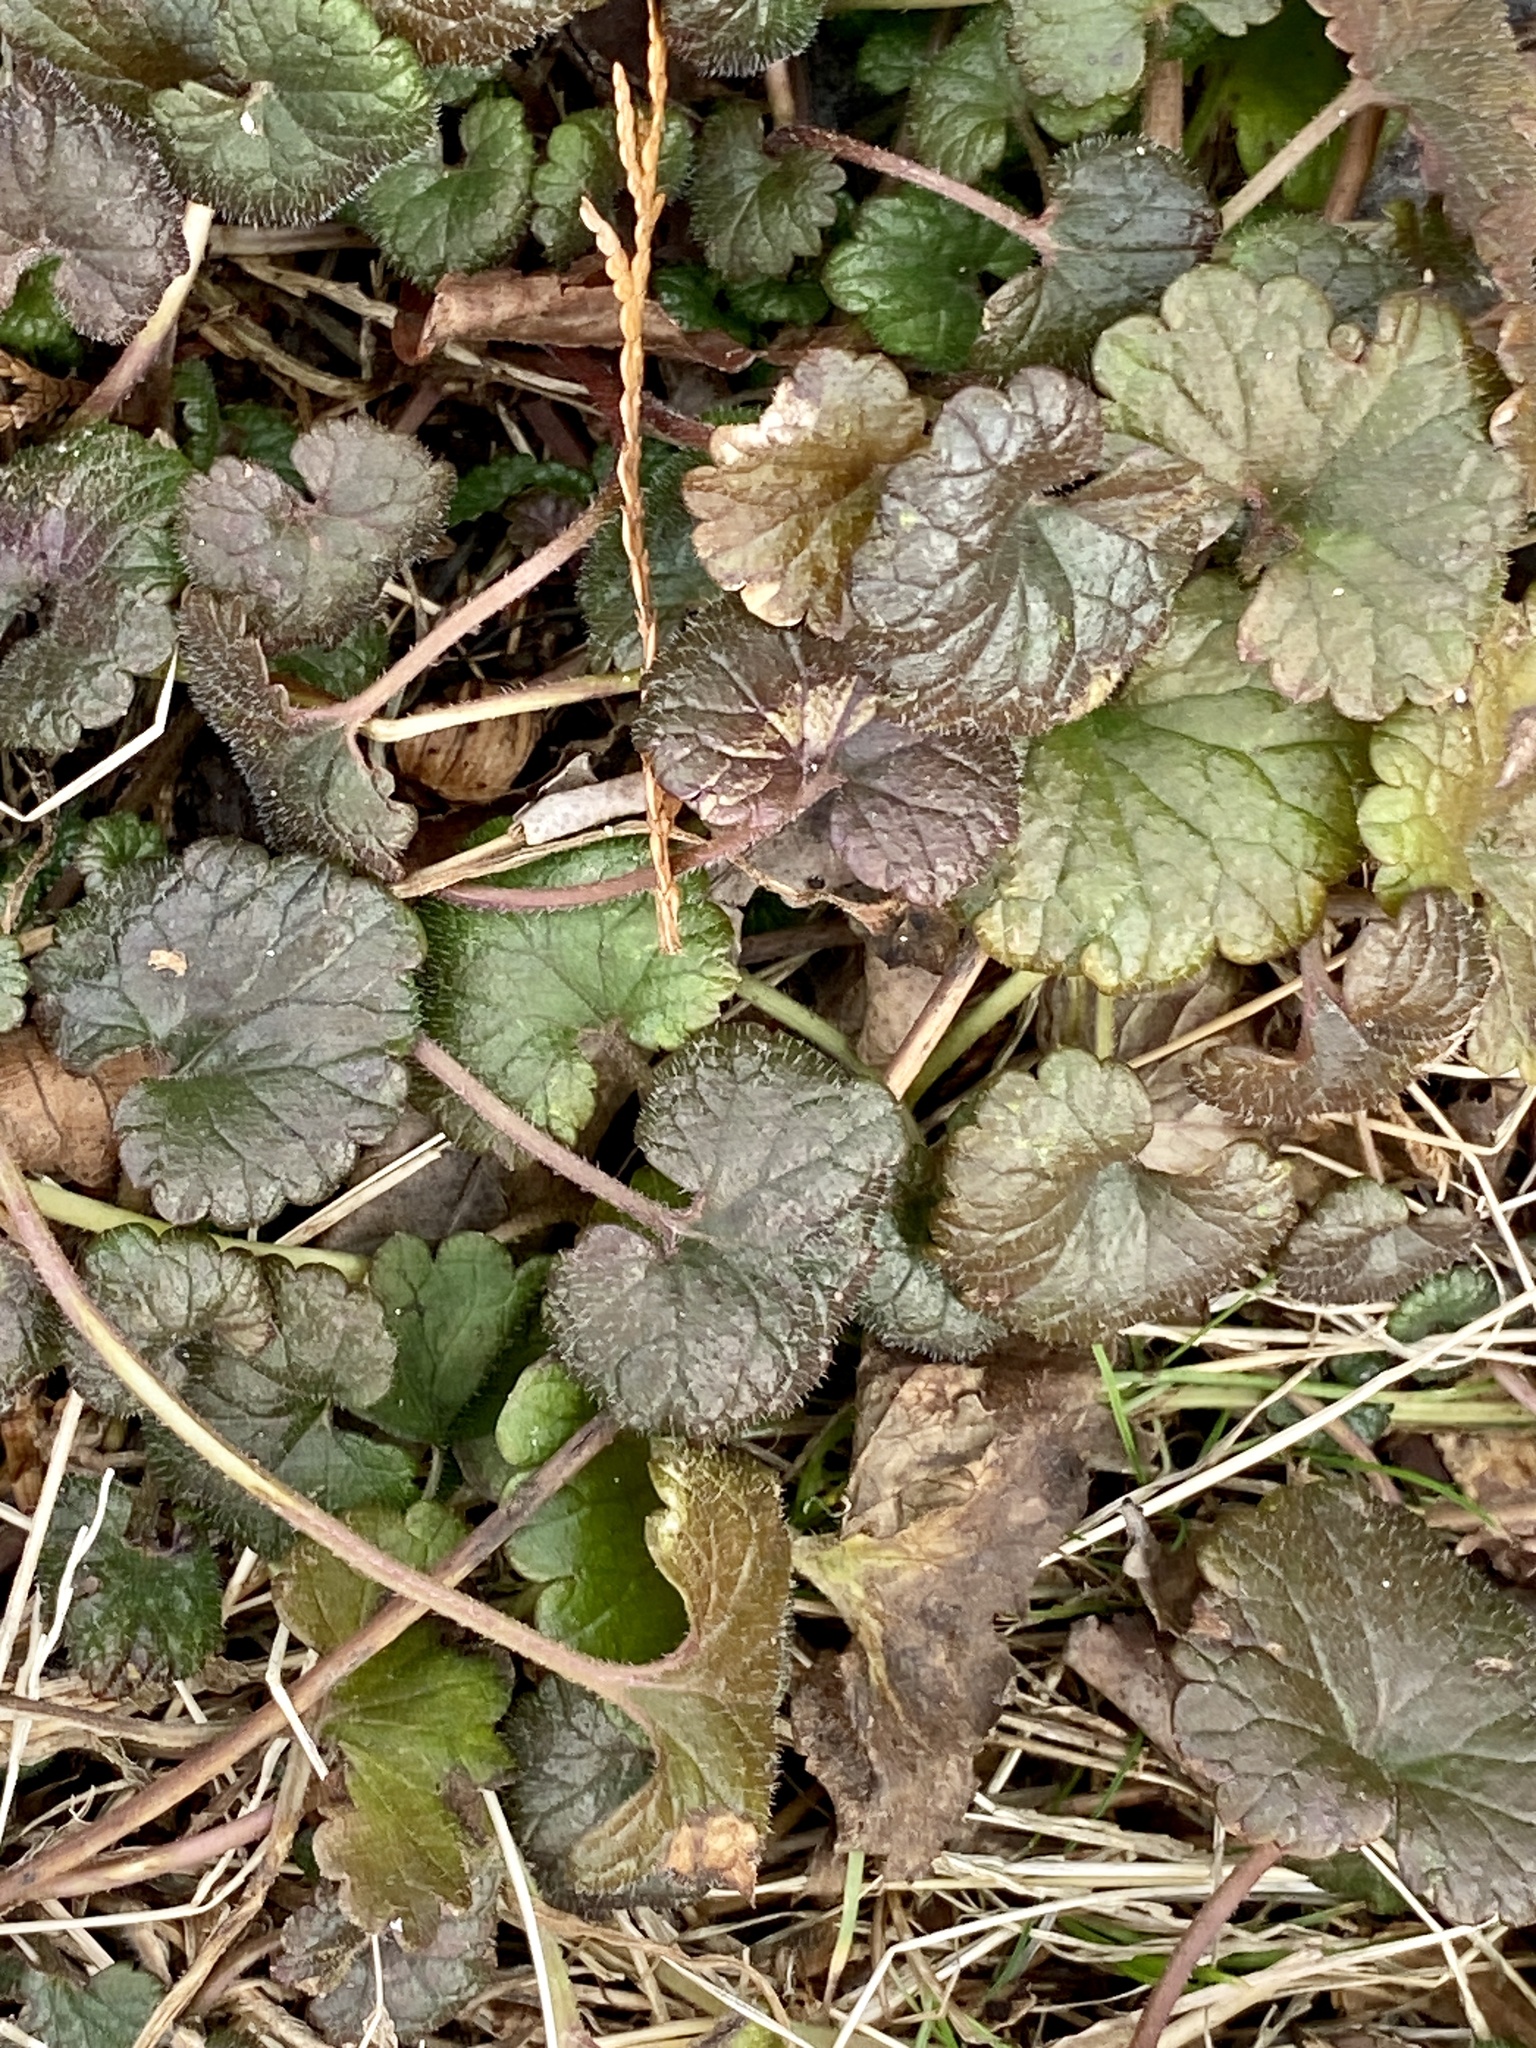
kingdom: Plantae
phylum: Tracheophyta
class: Magnoliopsida
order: Lamiales
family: Lamiaceae
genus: Glechoma
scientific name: Glechoma hederacea
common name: Ground ivy
